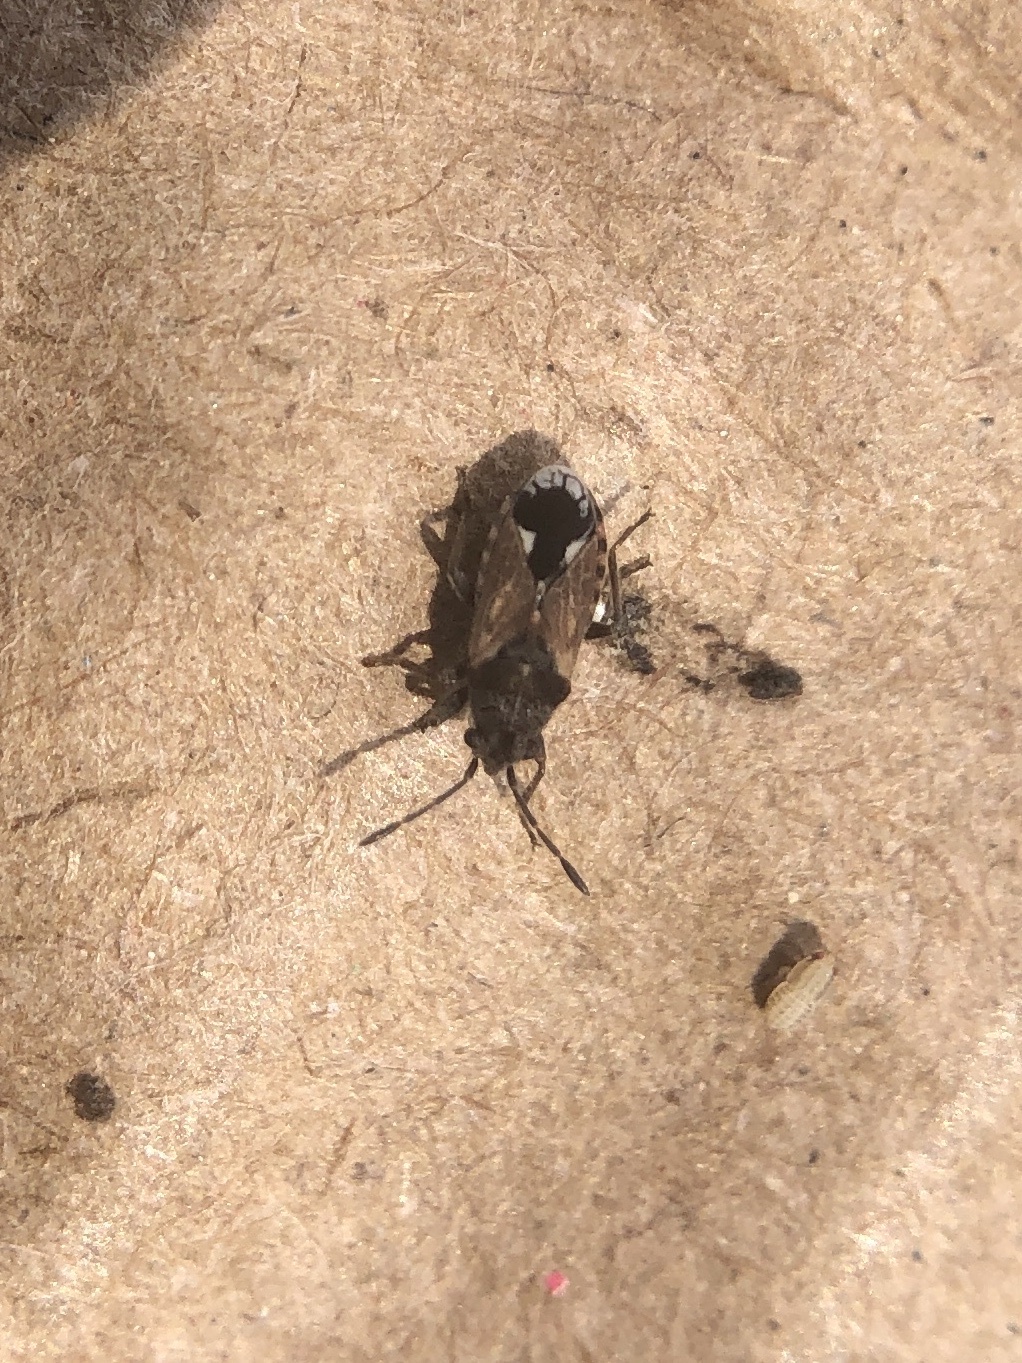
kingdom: Animalia
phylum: Arthropoda
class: Insecta
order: Hemiptera
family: Lygaeidae
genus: Lygaeosoma
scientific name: Lygaeosoma sardeum
